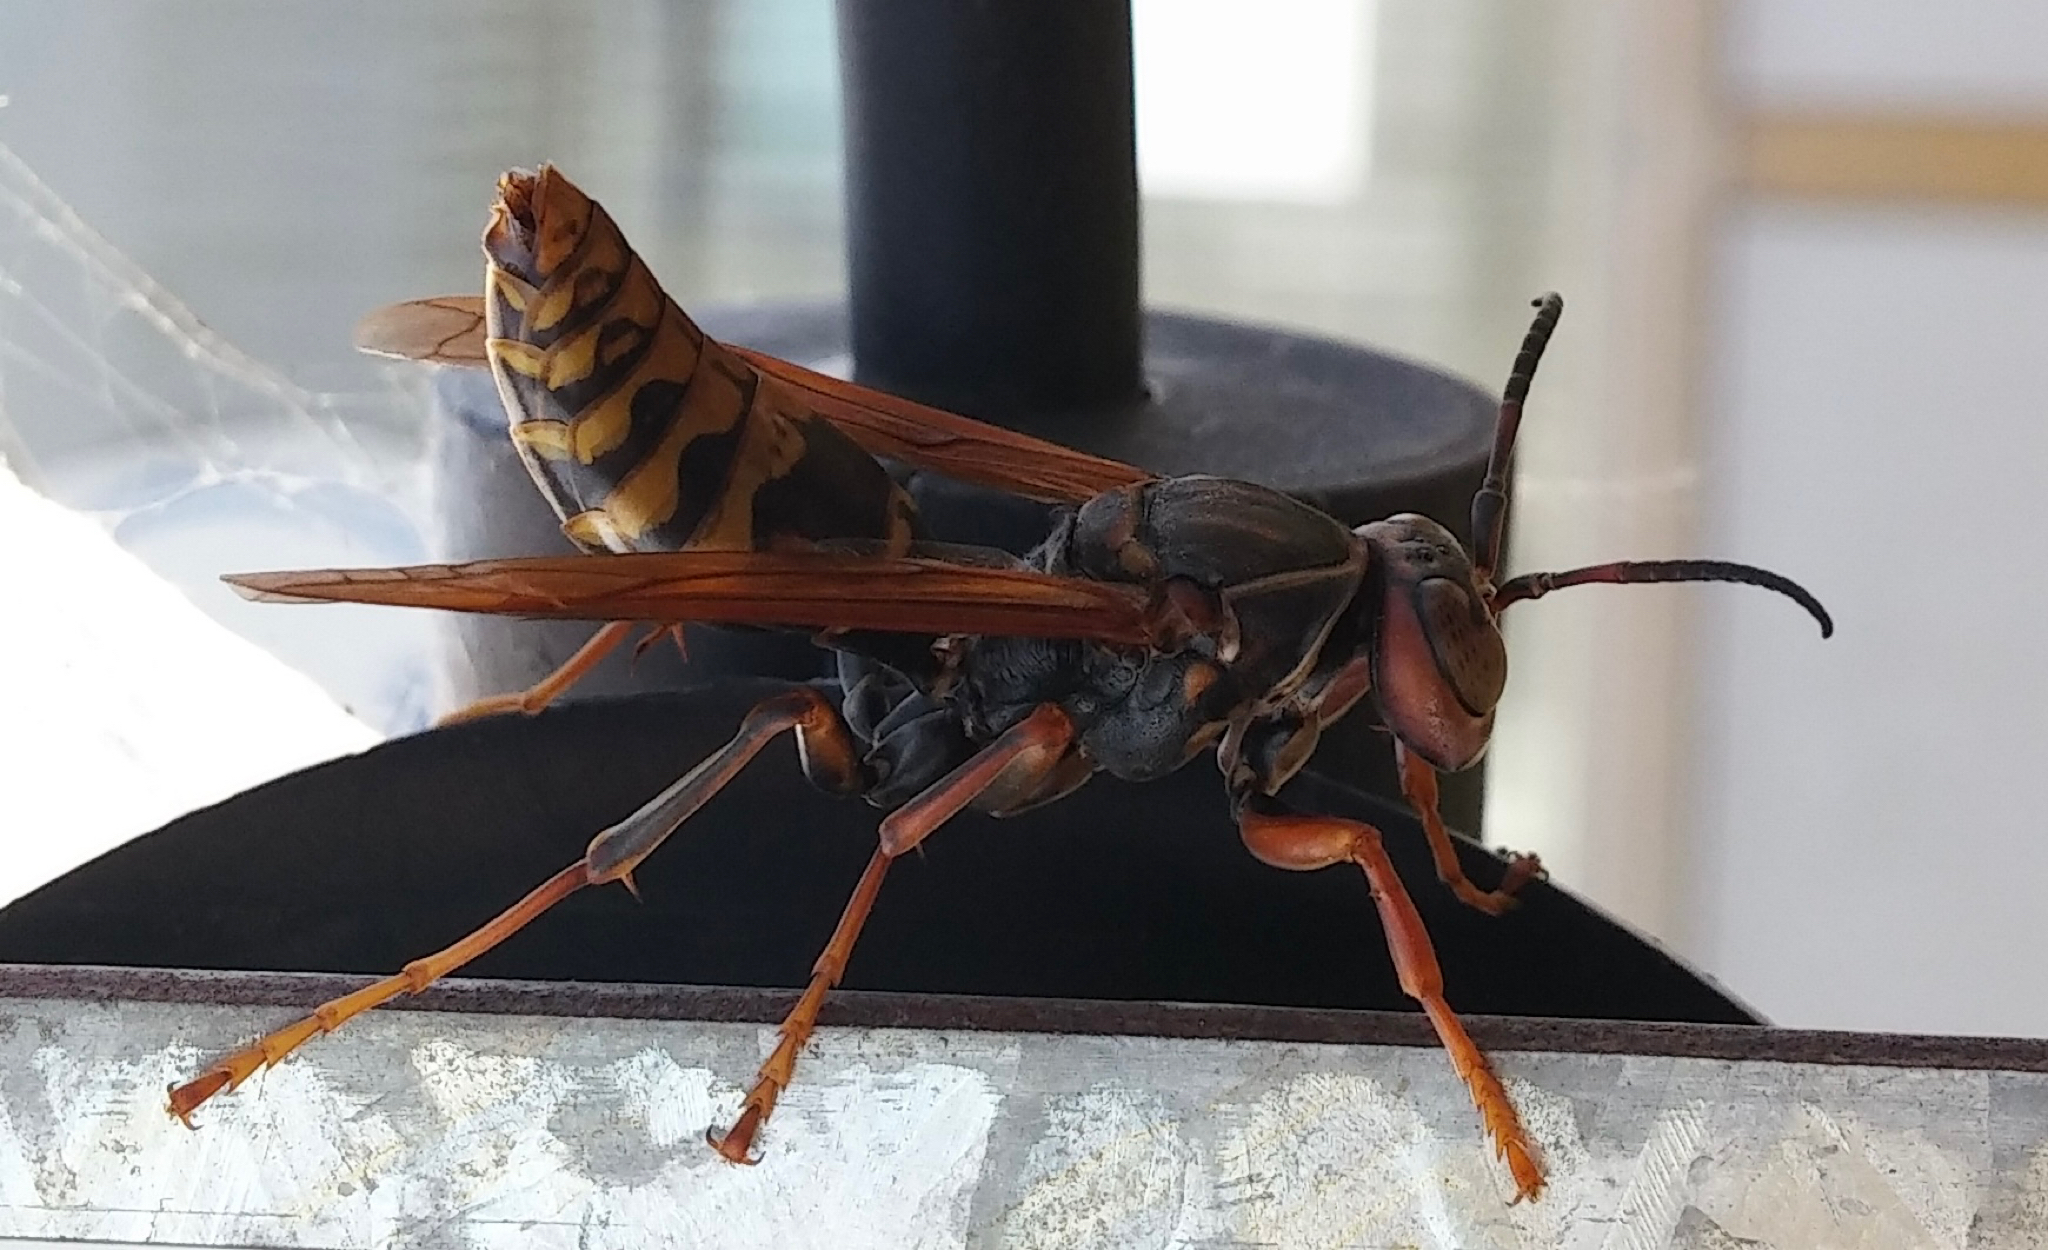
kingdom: Animalia
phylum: Arthropoda
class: Insecta
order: Hymenoptera
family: Eumenidae
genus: Polistes
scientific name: Polistes jokahamae
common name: Paper wasp
